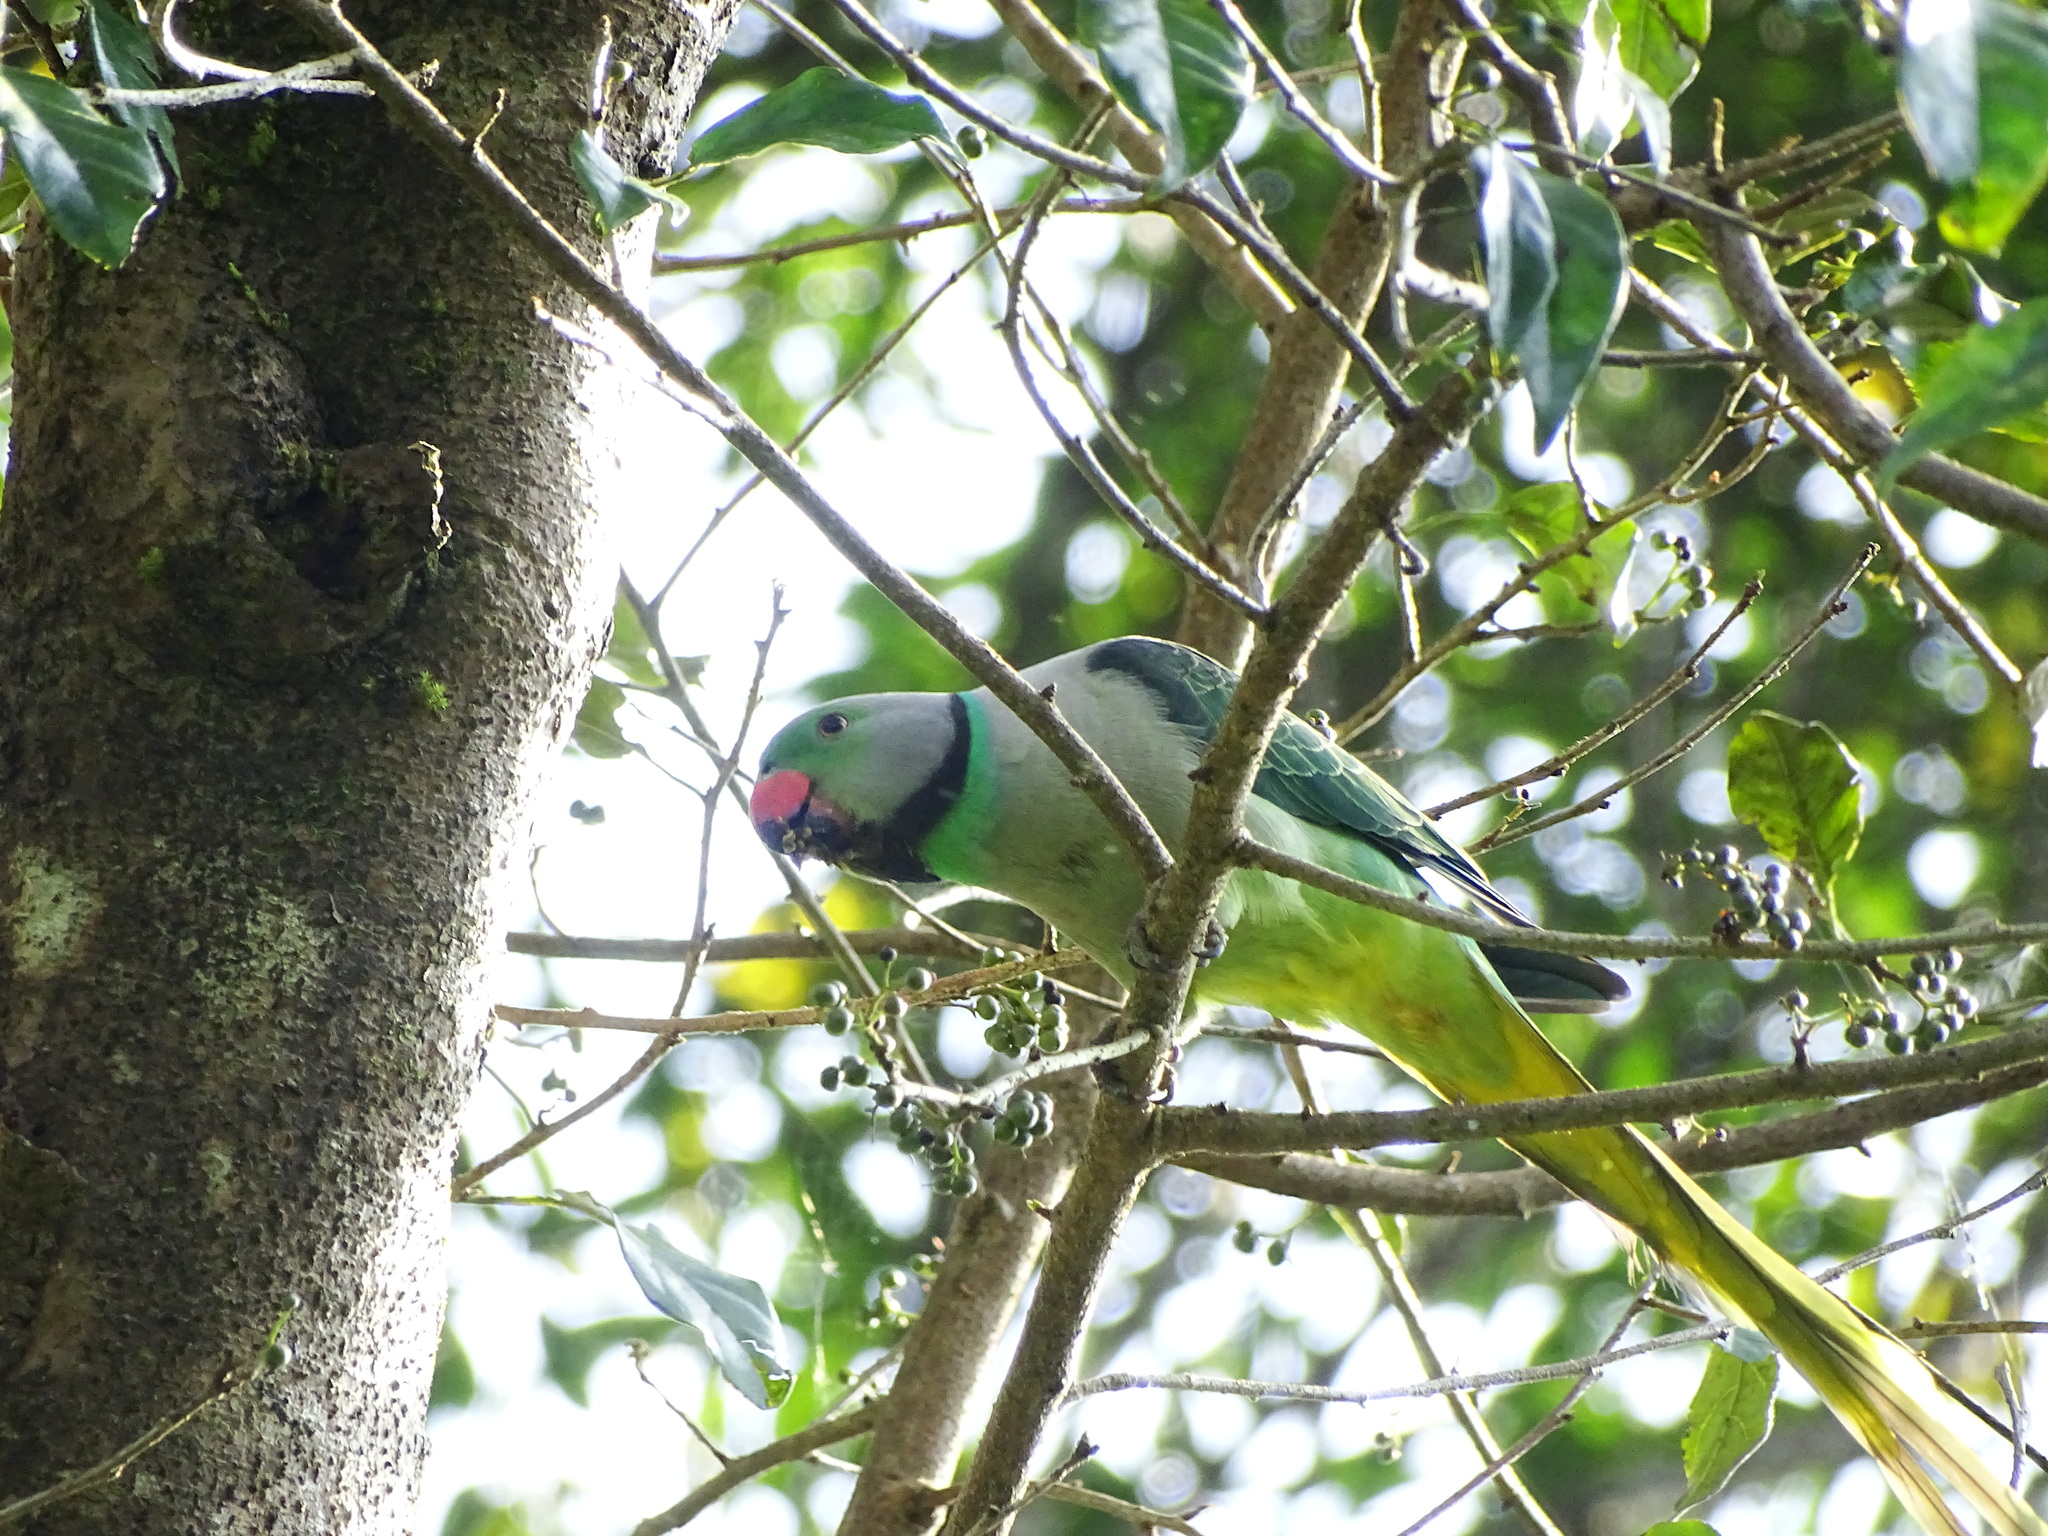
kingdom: Animalia
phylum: Chordata
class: Aves
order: Psittaciformes
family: Psittacidae
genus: Psittacula
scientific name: Psittacula columboides
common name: Blue-winged parakeet
